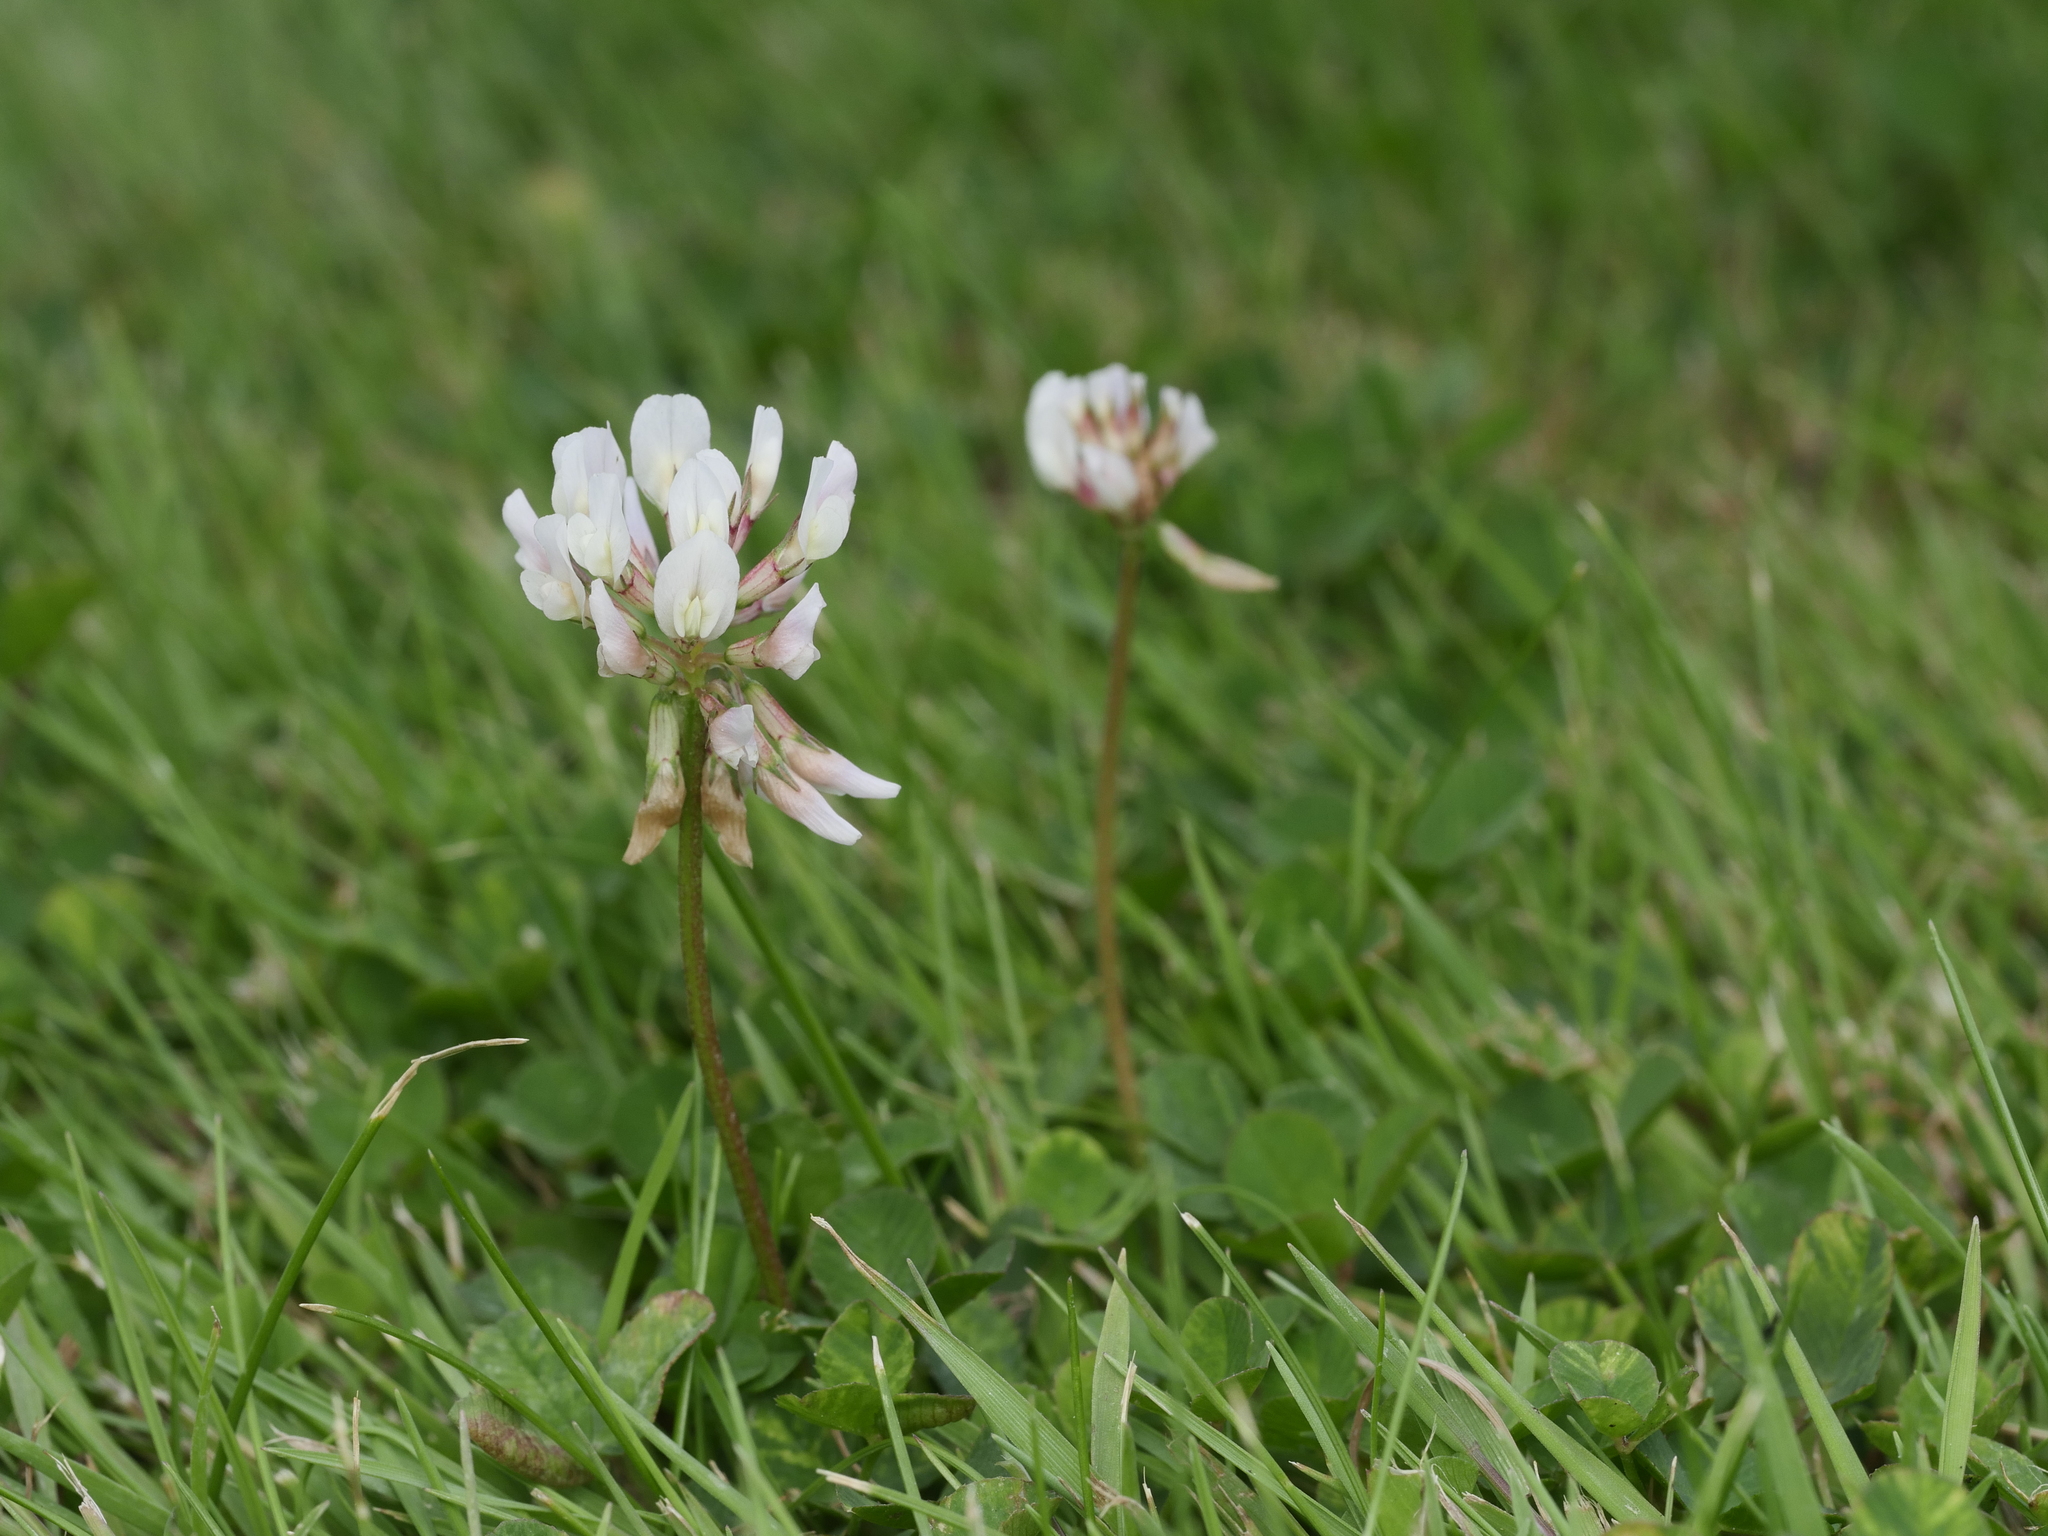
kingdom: Plantae
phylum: Tracheophyta
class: Magnoliopsida
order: Fabales
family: Fabaceae
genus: Trifolium
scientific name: Trifolium repens
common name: White clover
